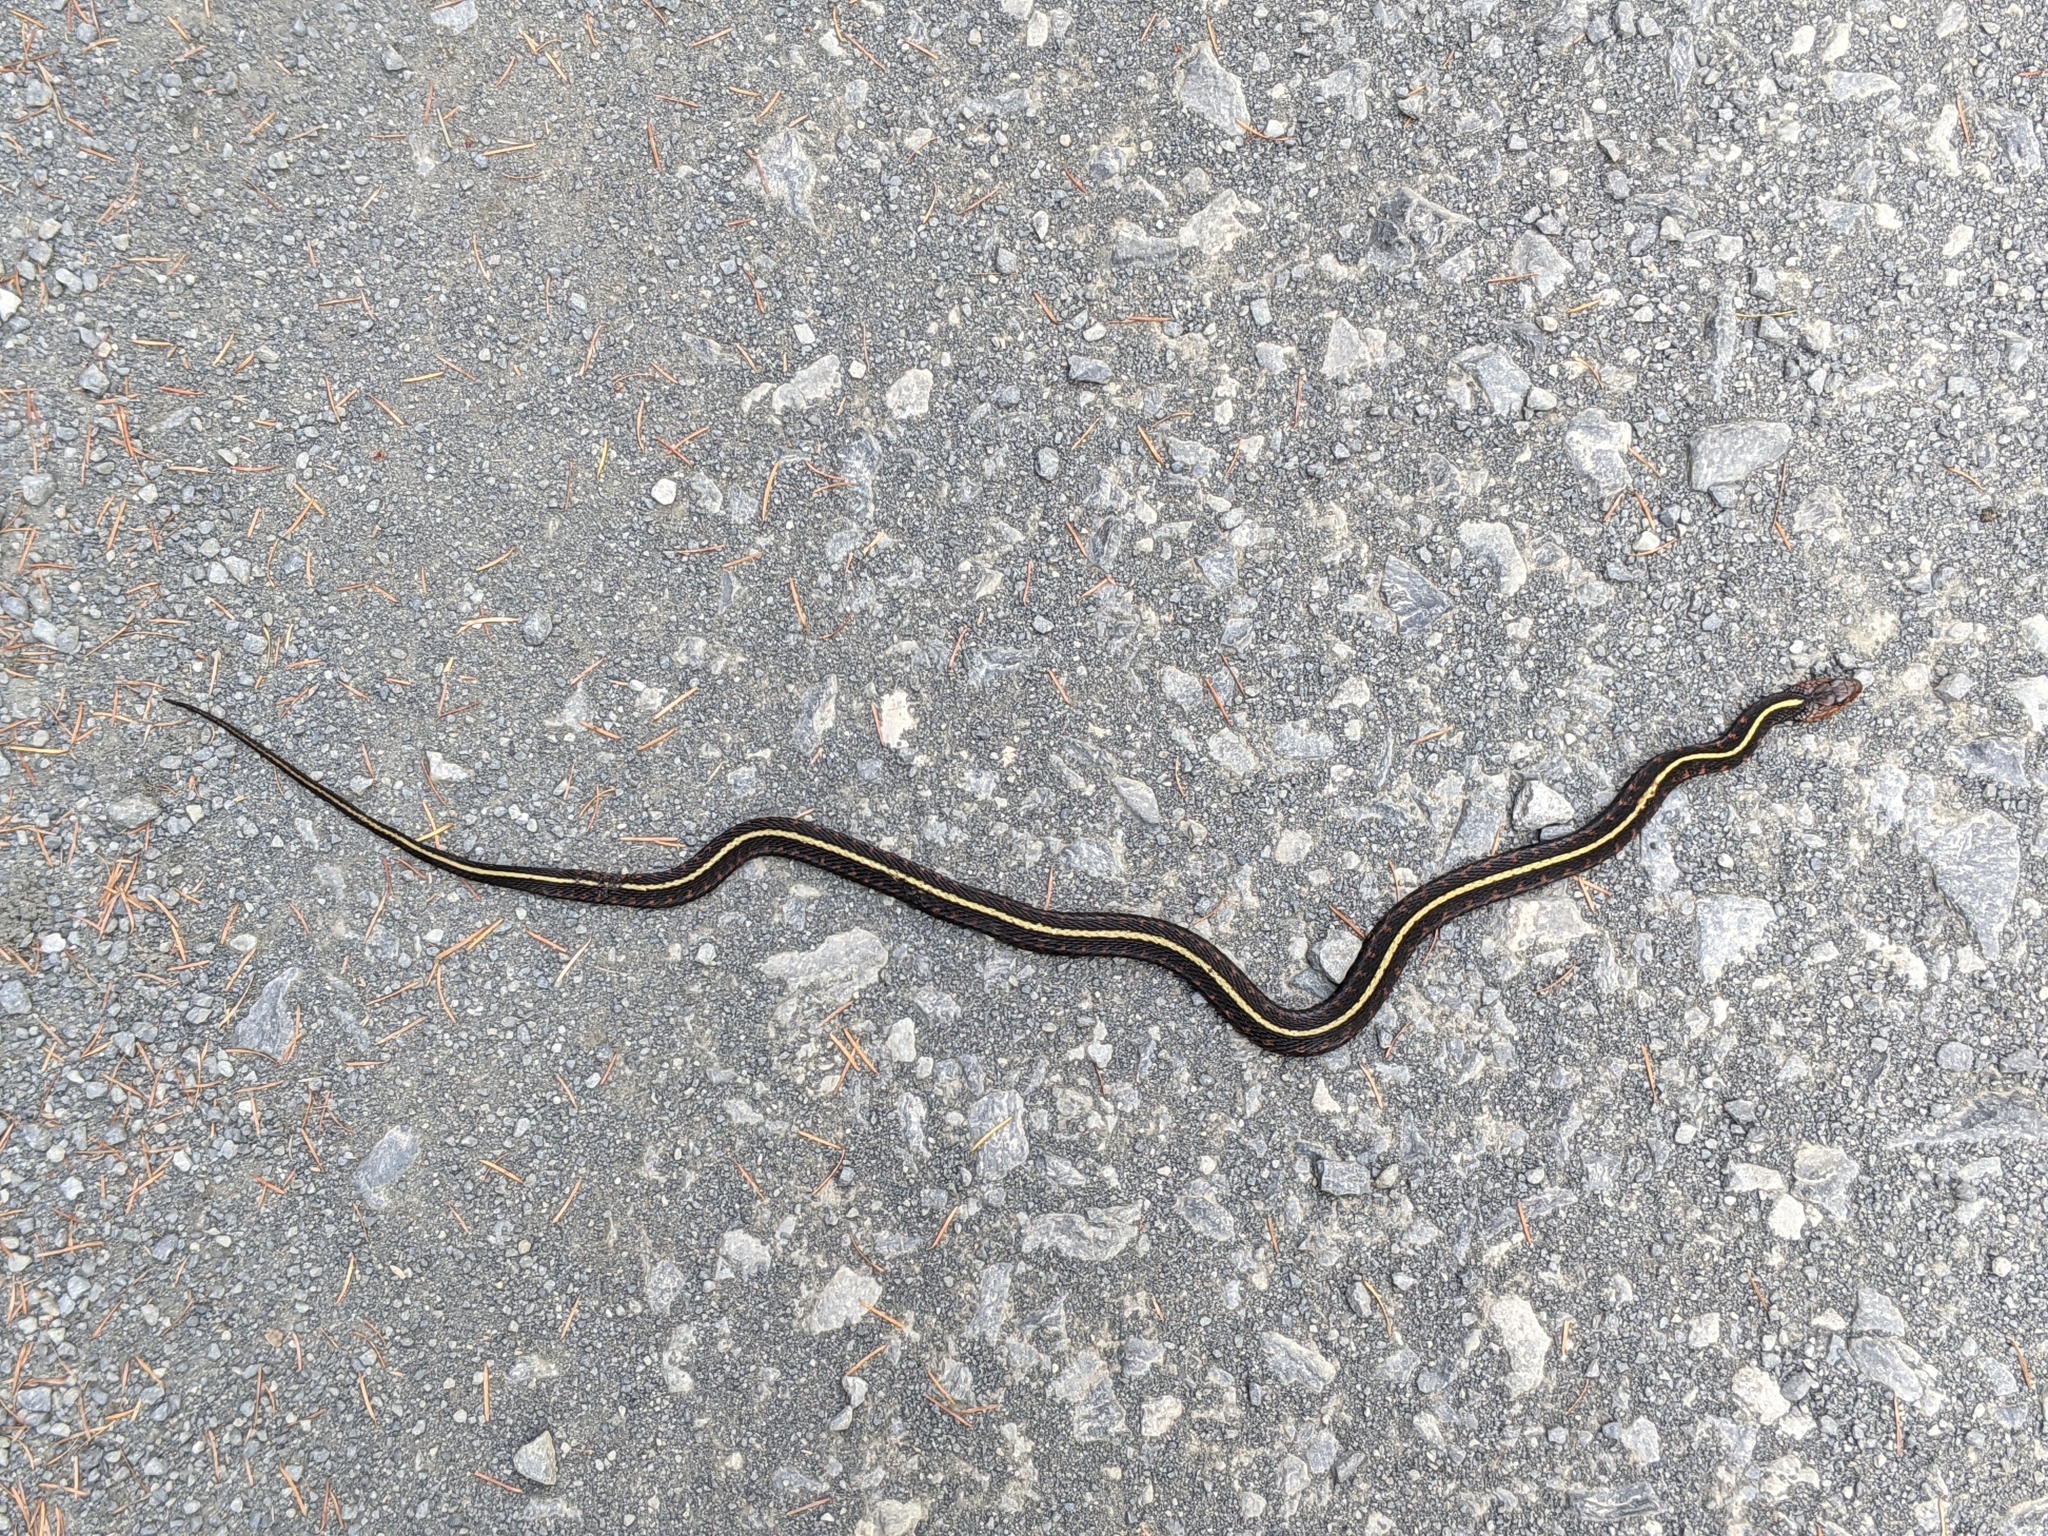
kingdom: Animalia
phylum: Chordata
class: Squamata
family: Colubridae
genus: Thamnophis
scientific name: Thamnophis sirtalis
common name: Common garter snake
